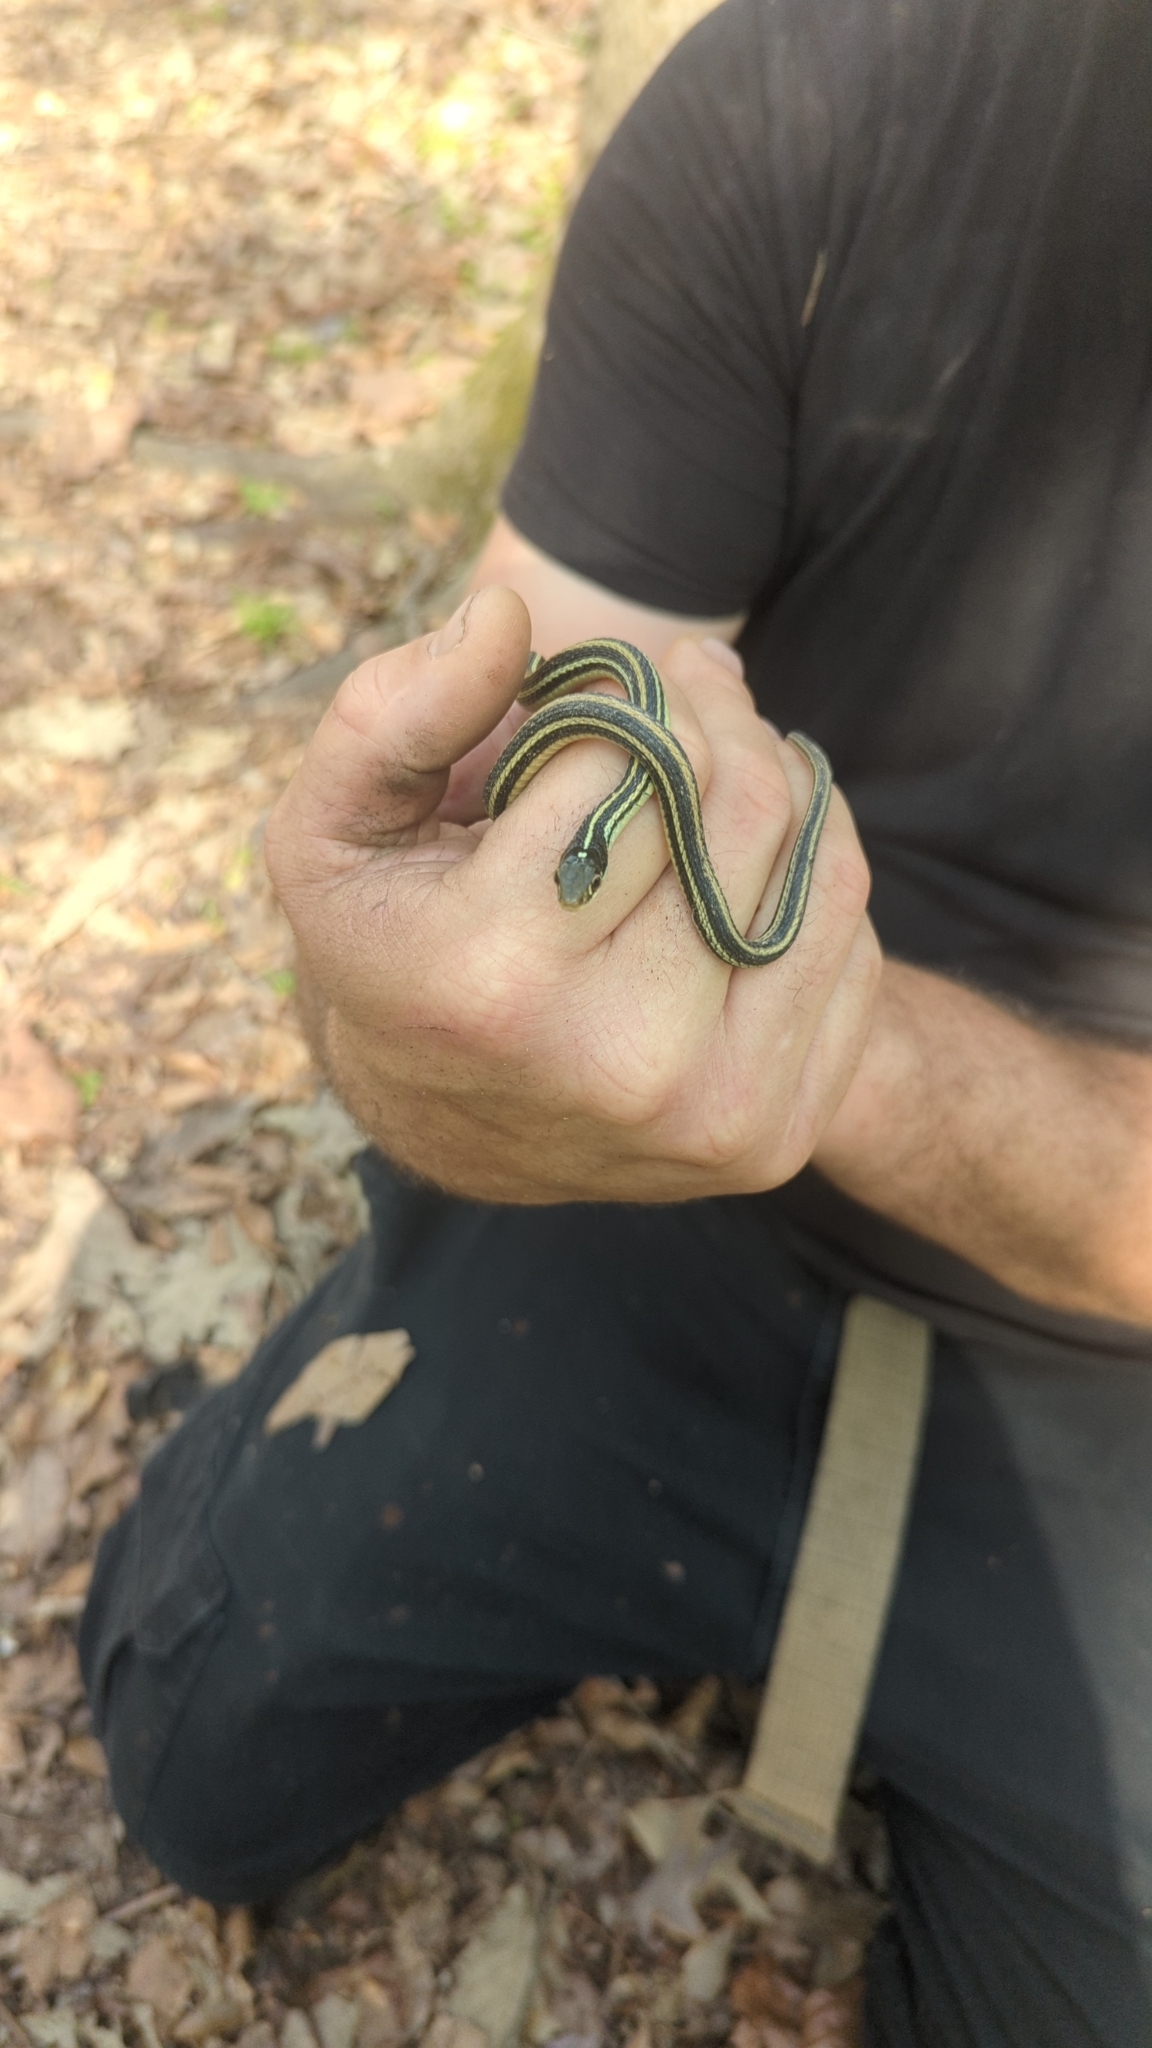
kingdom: Animalia
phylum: Chordata
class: Squamata
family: Colubridae
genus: Thamnophis
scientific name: Thamnophis proximus
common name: Western ribbon snake
